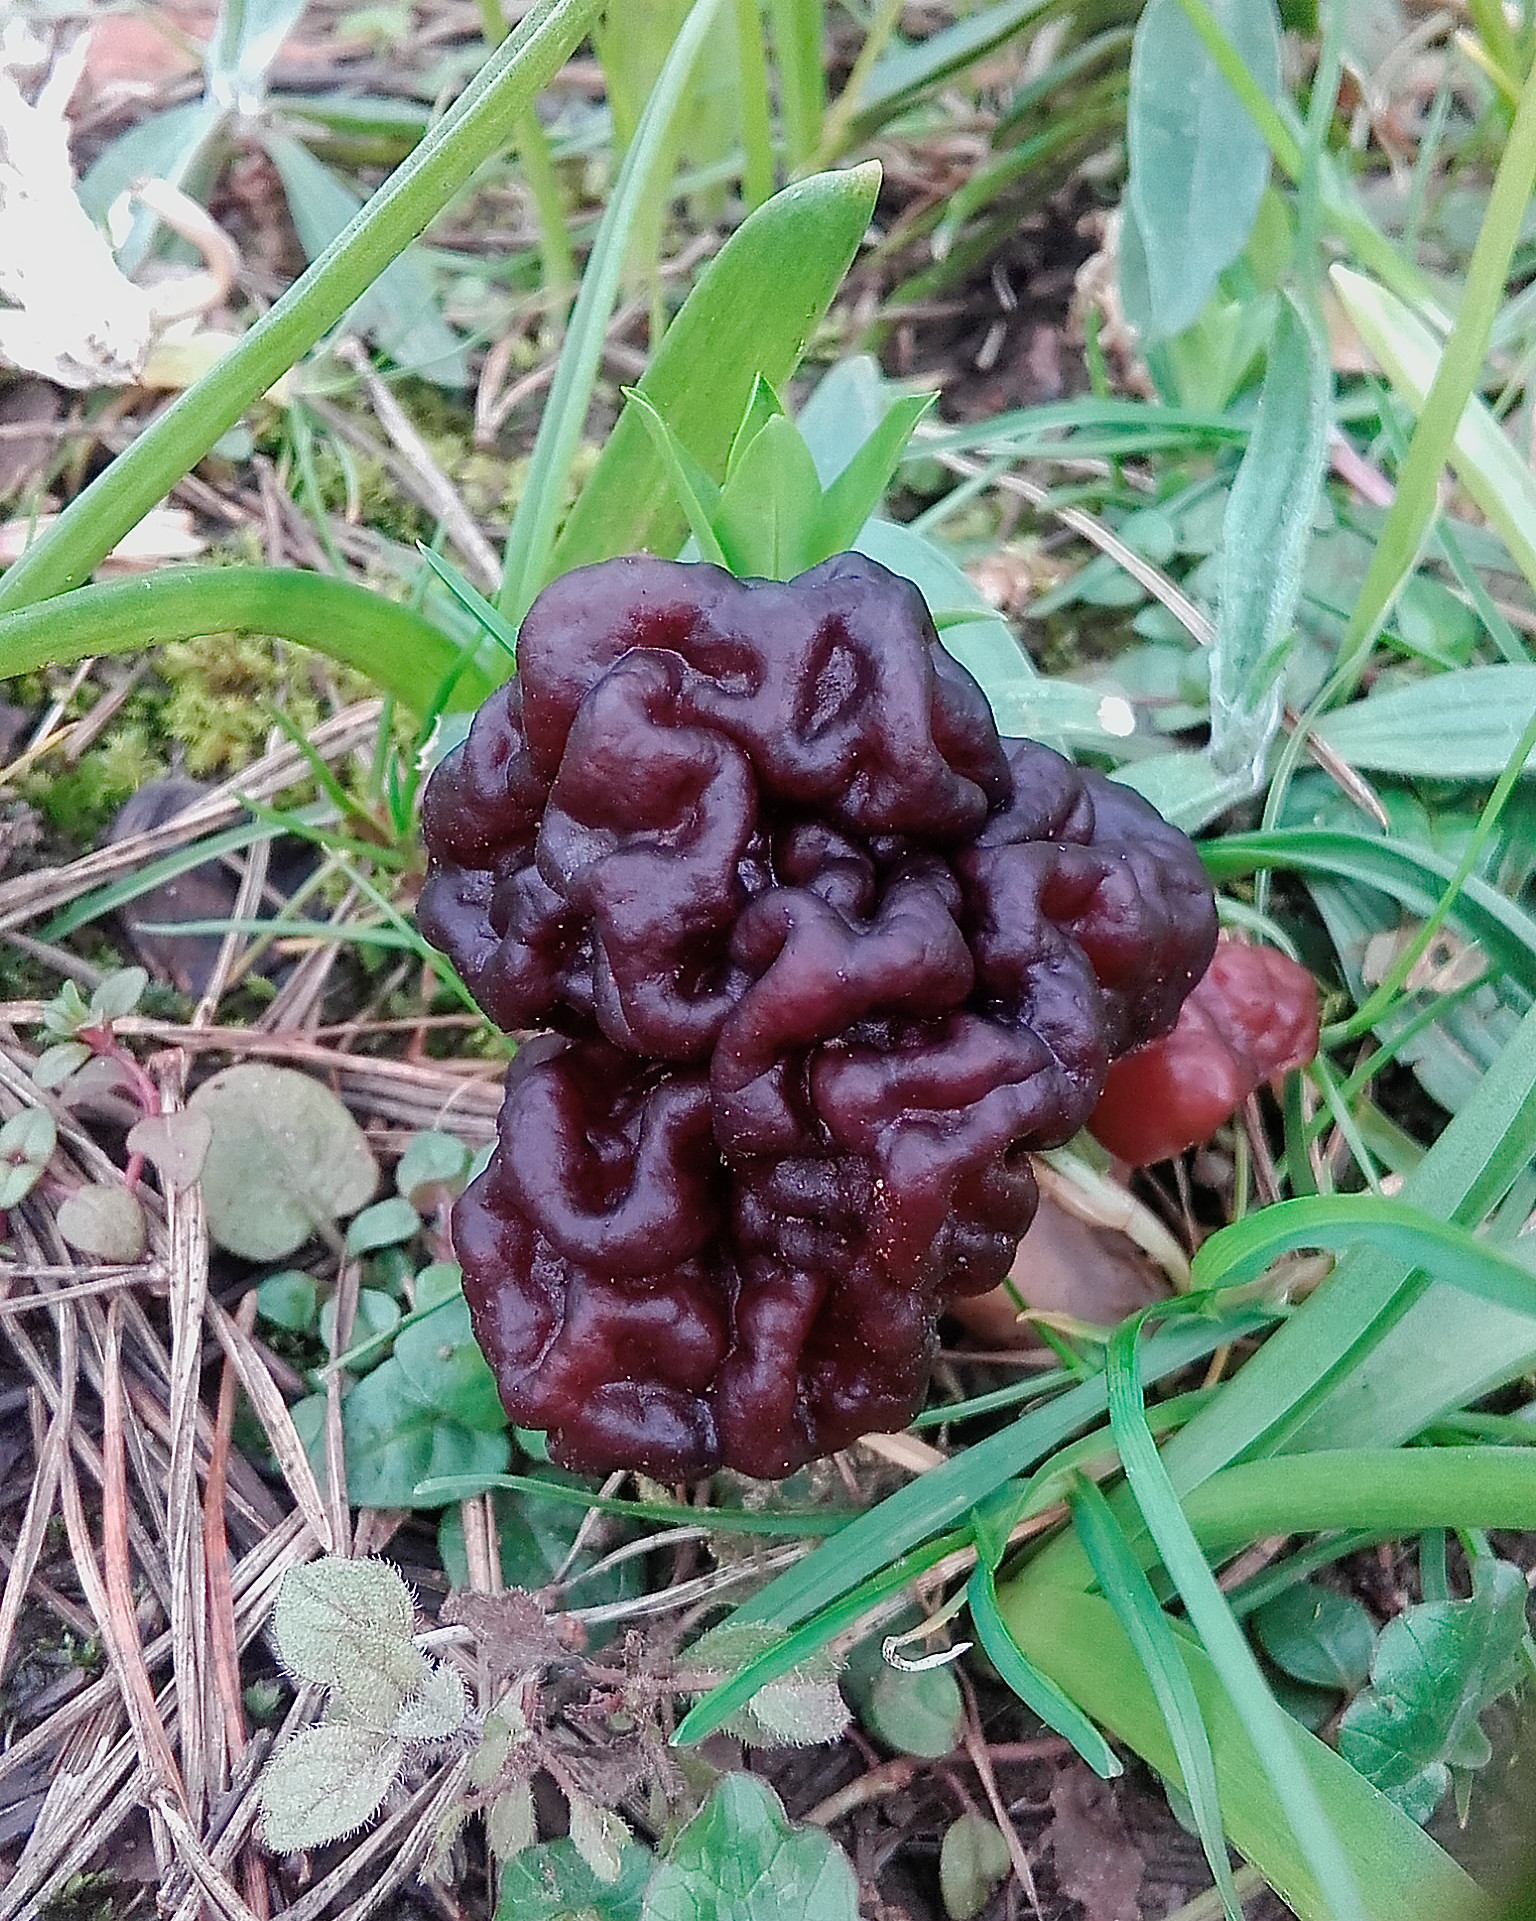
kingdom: Fungi
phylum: Ascomycota
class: Pezizomycetes
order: Pezizales
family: Discinaceae
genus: Gyromitra
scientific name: Gyromitra esculenta
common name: False morel
